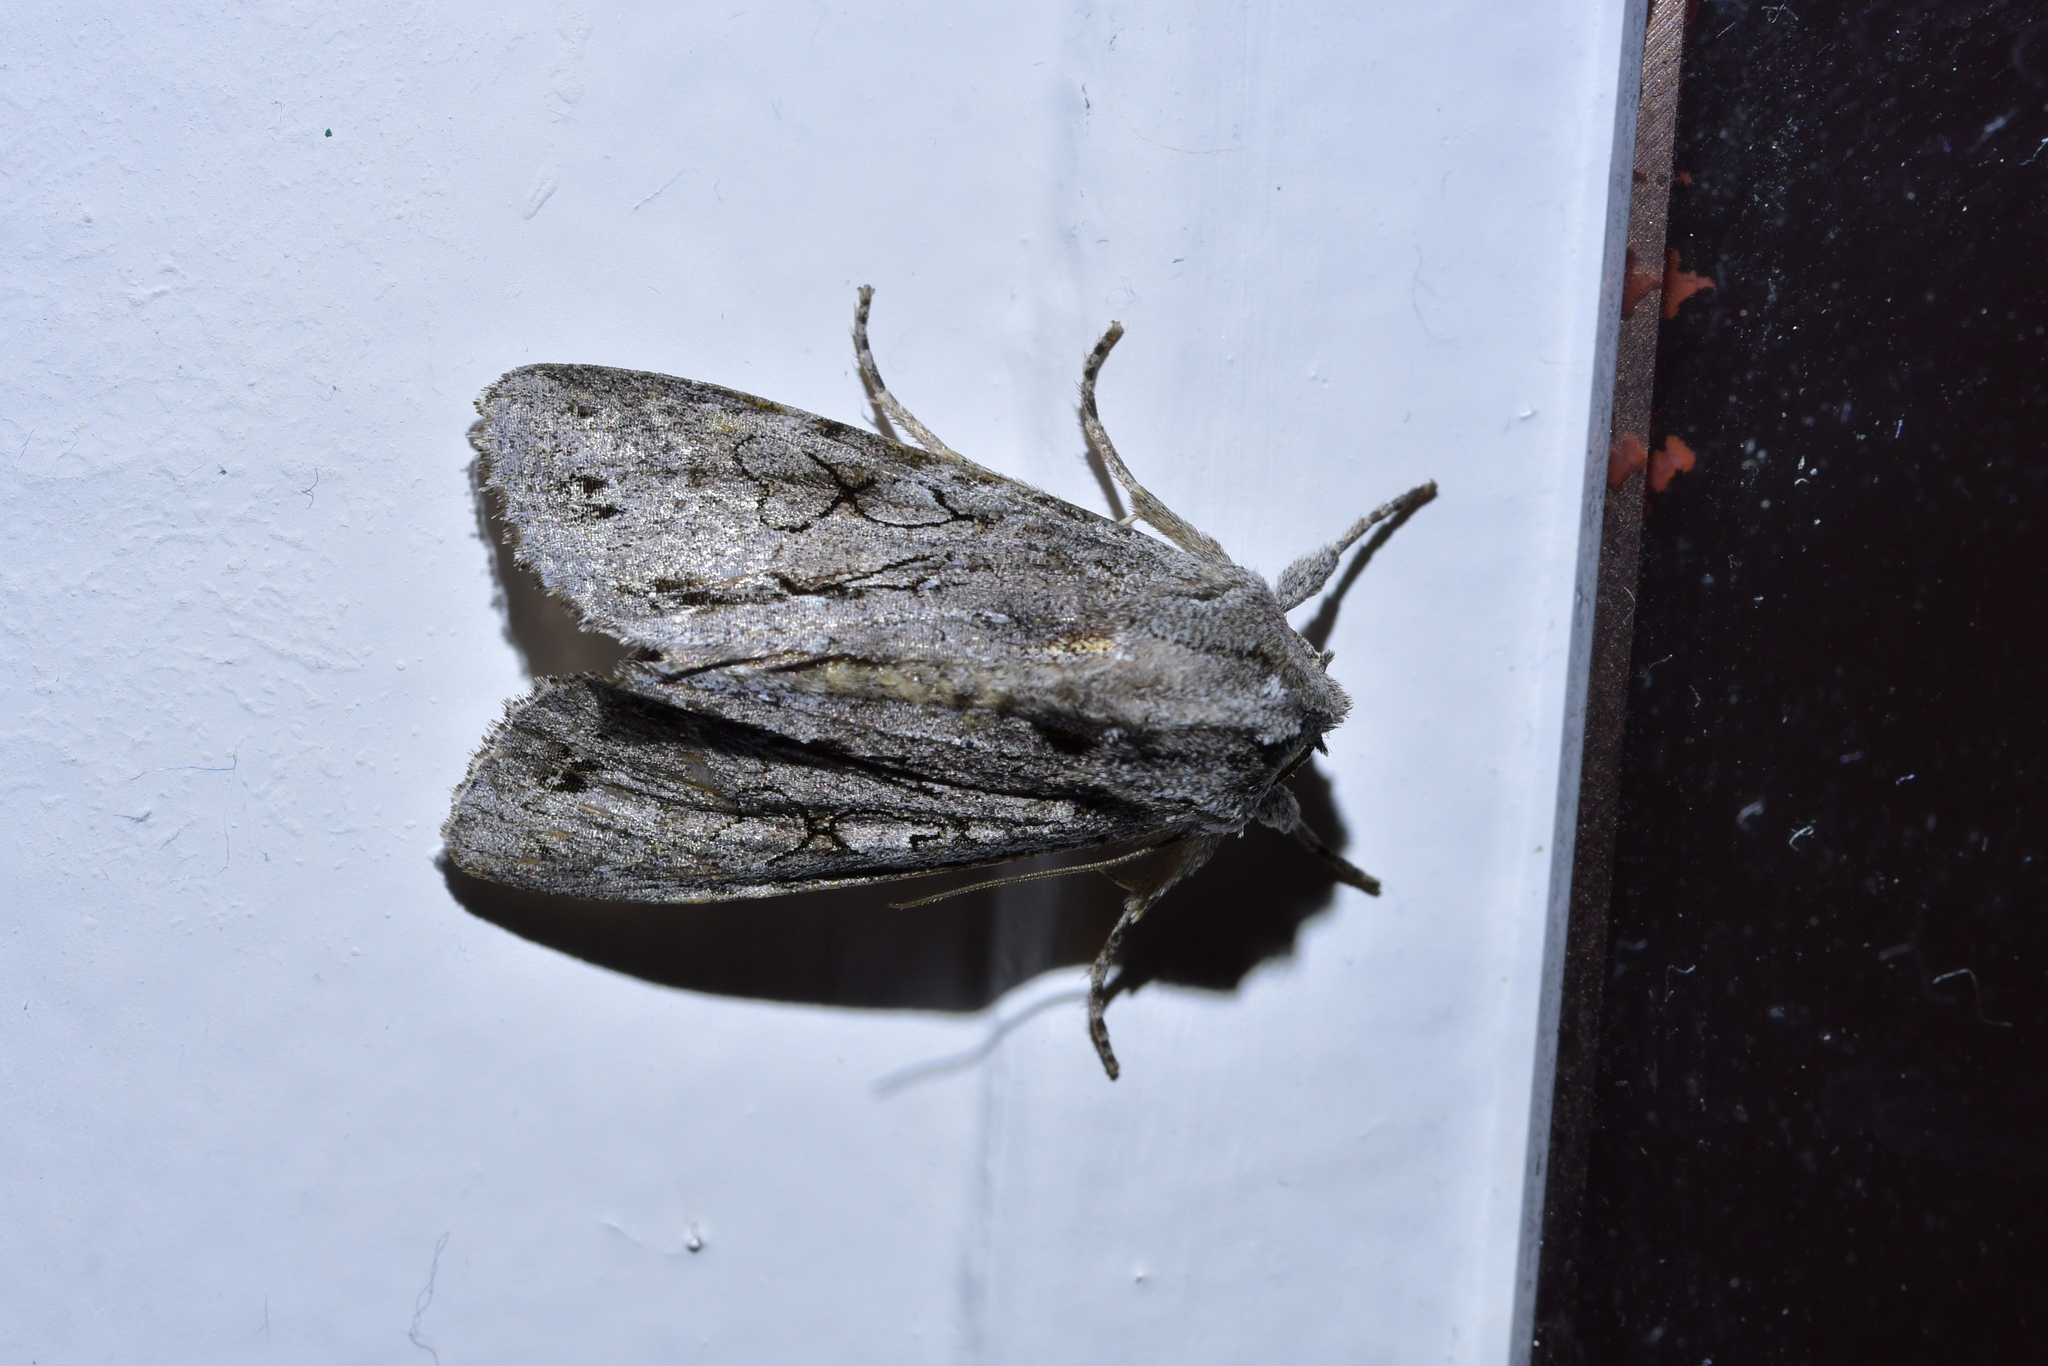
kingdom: Animalia
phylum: Arthropoda
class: Insecta
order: Lepidoptera
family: Noctuidae
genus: Ichneutica
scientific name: Ichneutica
